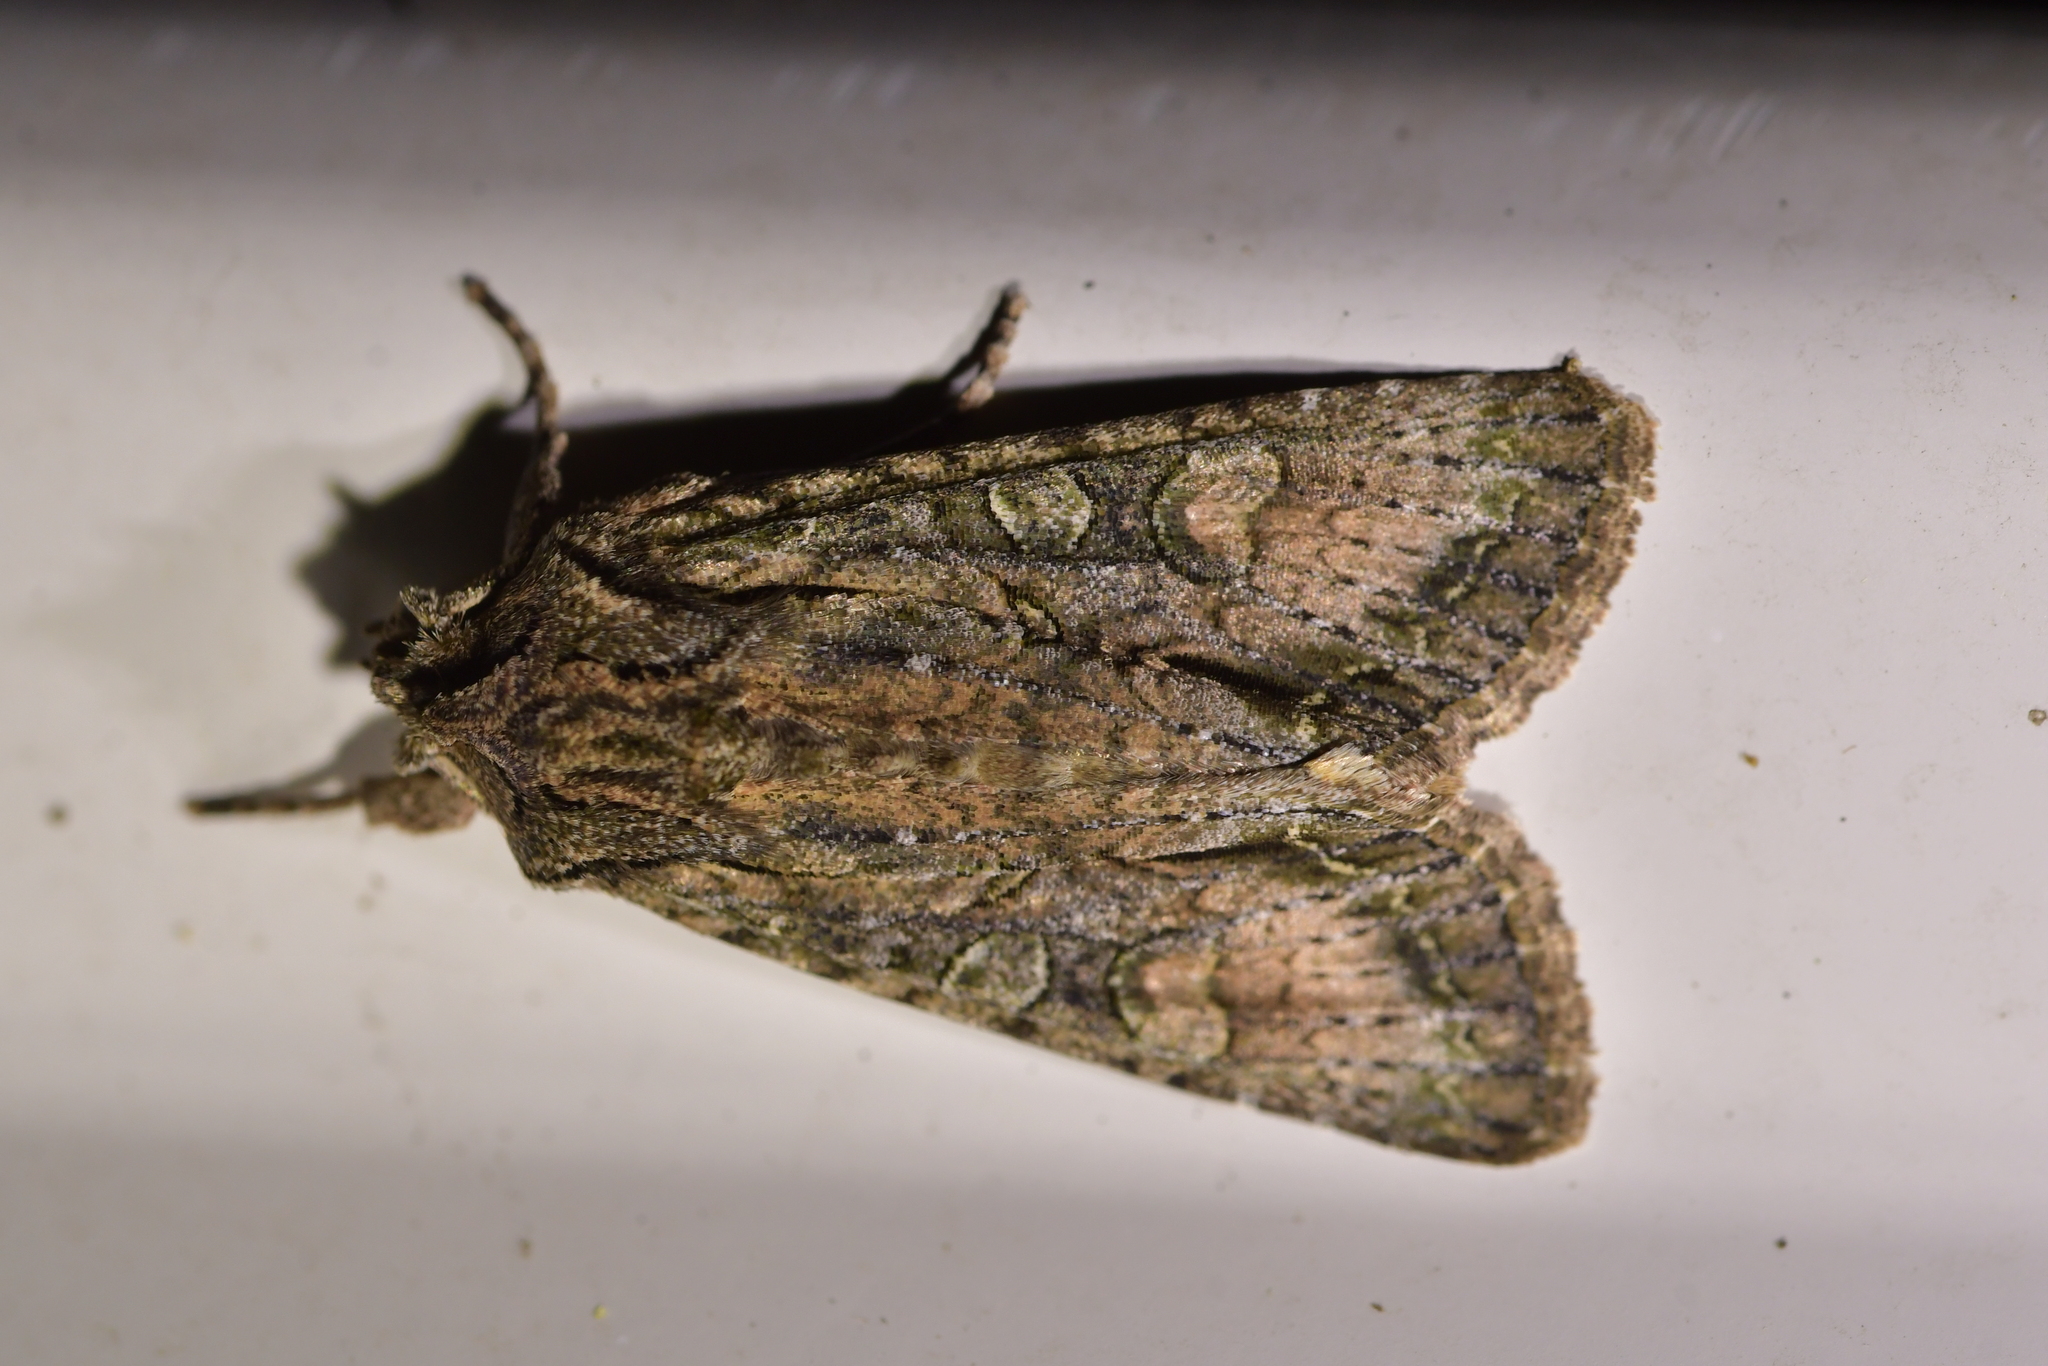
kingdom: Animalia
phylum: Arthropoda
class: Insecta
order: Lepidoptera
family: Noctuidae
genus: Ichneutica
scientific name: Ichneutica mutans
